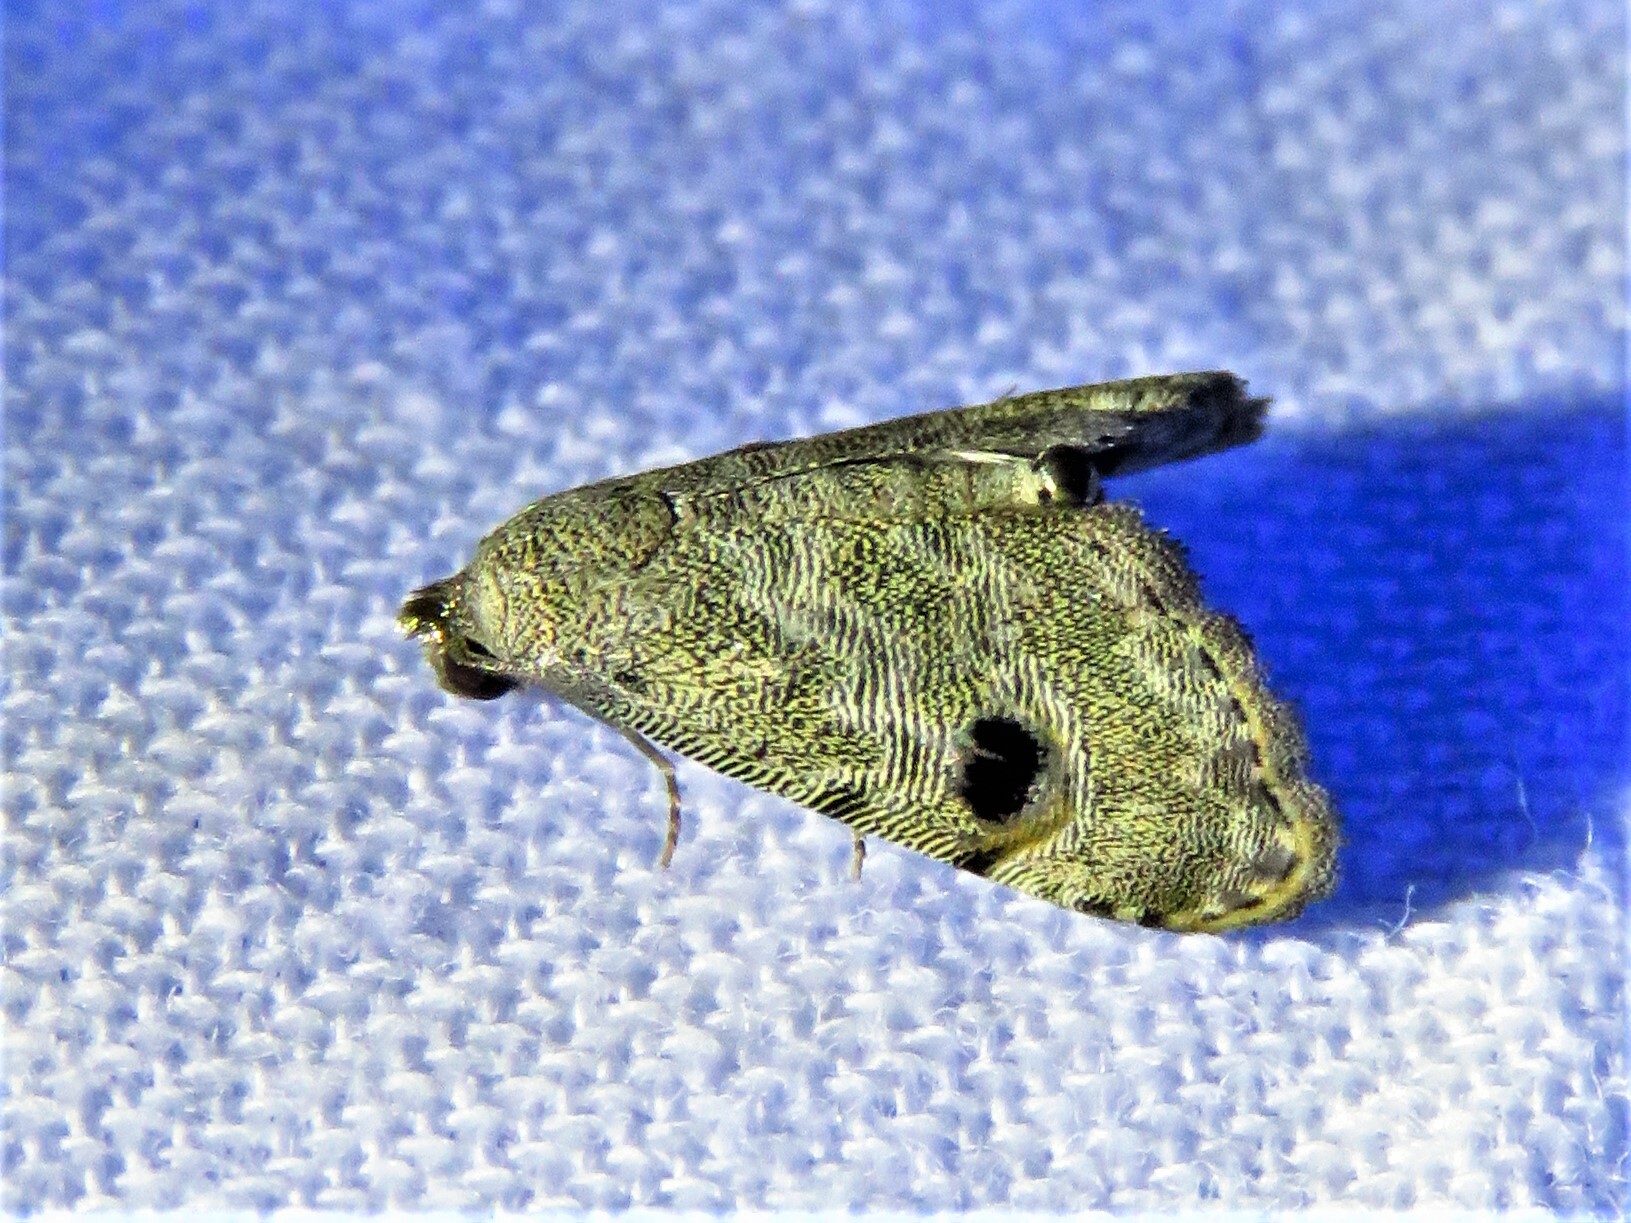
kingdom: Animalia
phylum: Arthropoda
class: Insecta
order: Lepidoptera
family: Noctuidae
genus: Abablemma
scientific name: Abablemma brimleyana
